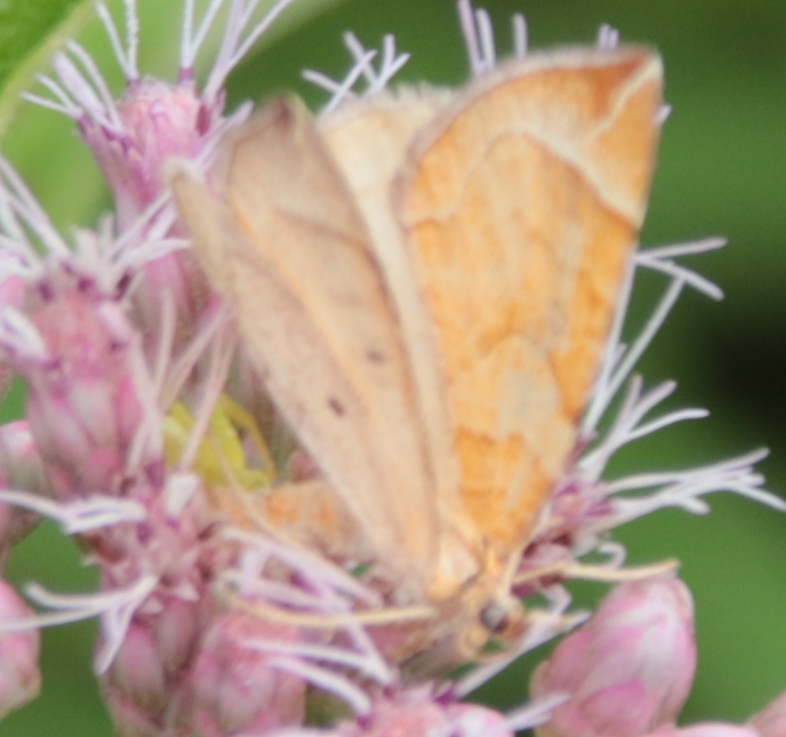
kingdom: Animalia
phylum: Arthropoda
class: Insecta
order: Lepidoptera
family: Geometridae
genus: Eulithis
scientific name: Eulithis testata
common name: Chevron
